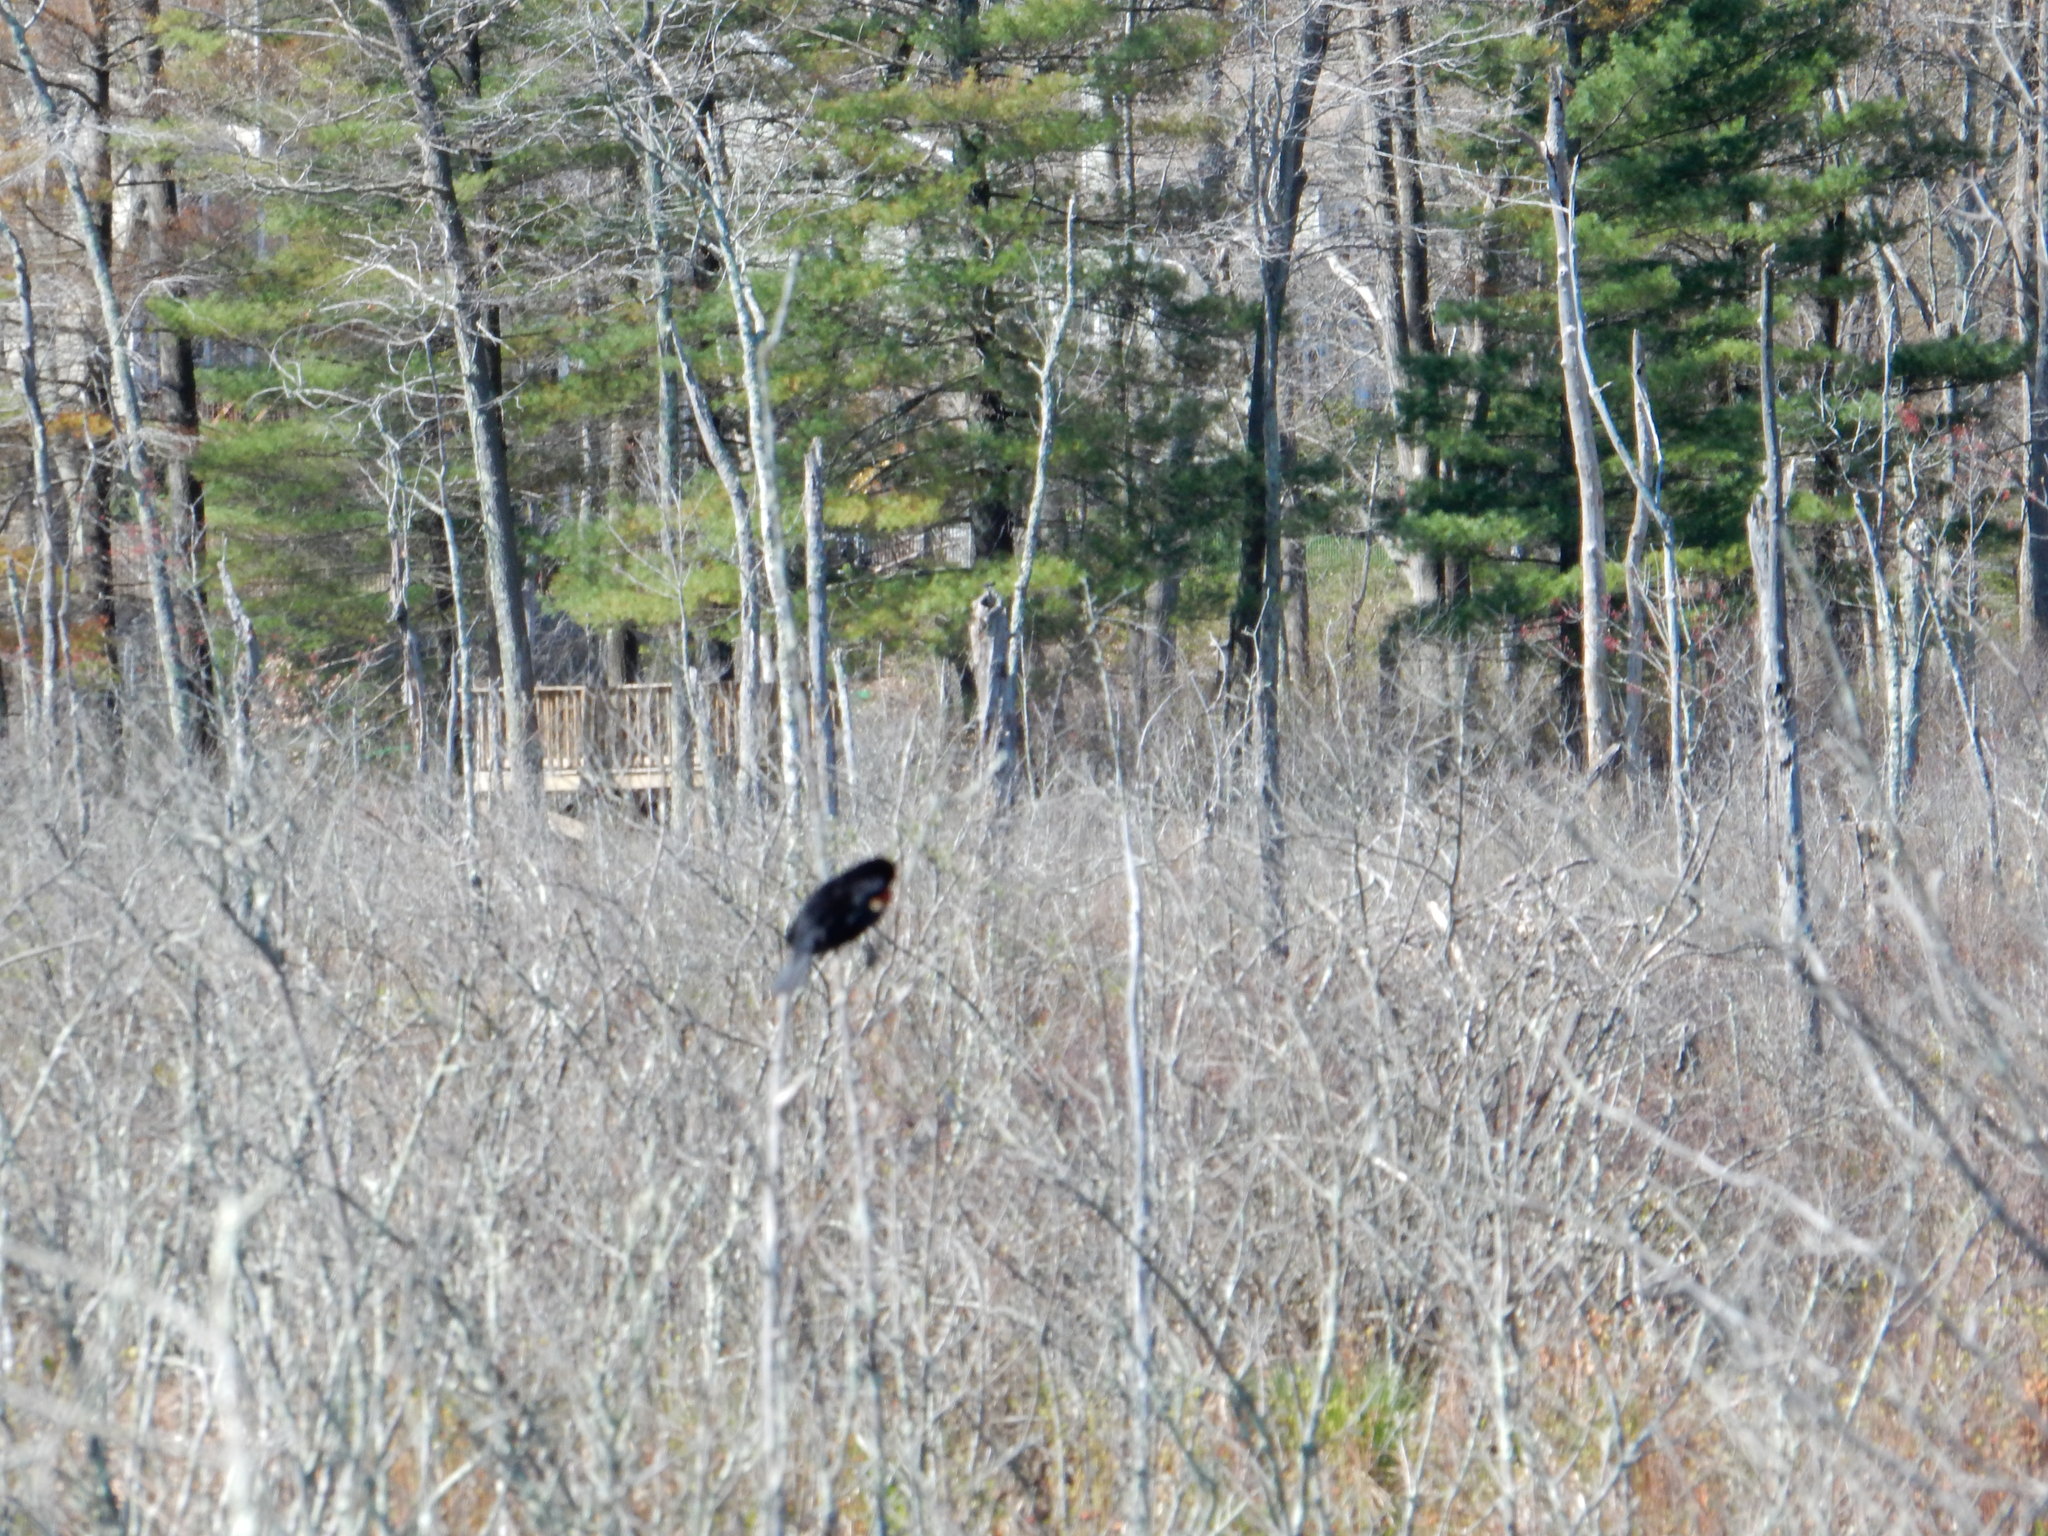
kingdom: Animalia
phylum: Chordata
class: Aves
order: Passeriformes
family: Icteridae
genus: Agelaius
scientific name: Agelaius phoeniceus
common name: Red-winged blackbird
